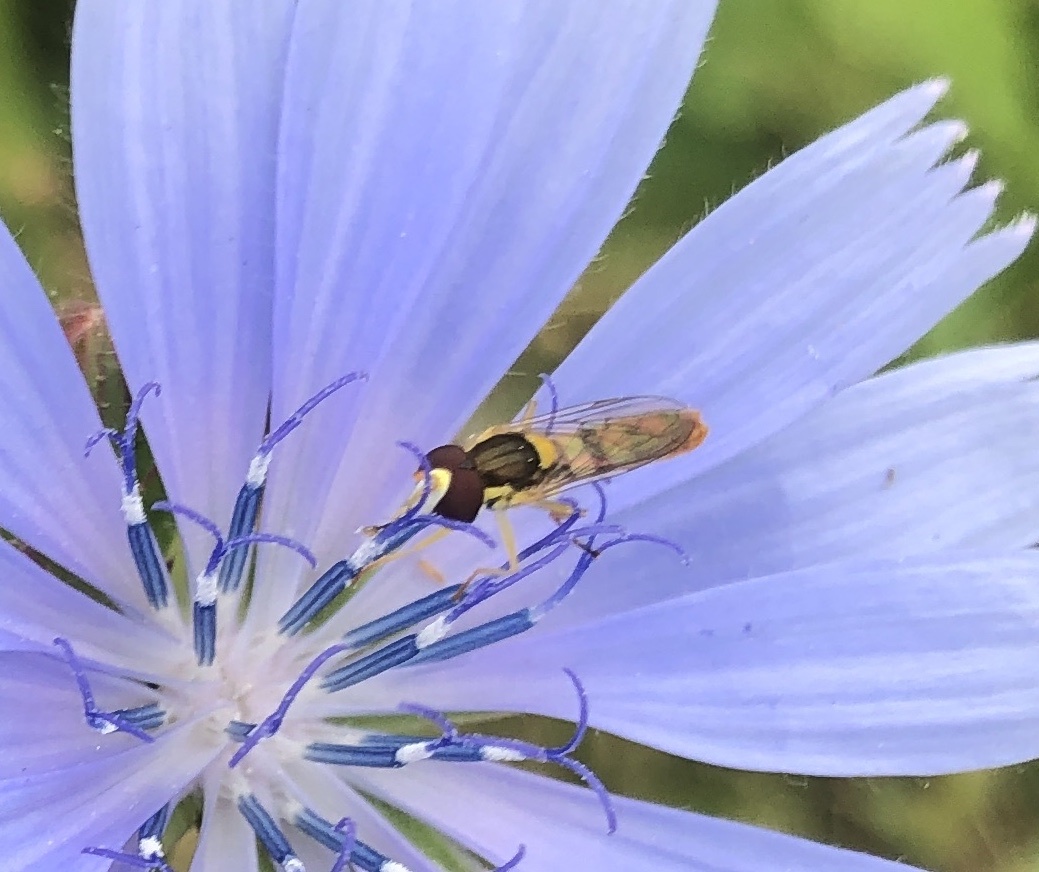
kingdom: Animalia
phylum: Arthropoda
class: Insecta
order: Diptera
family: Syrphidae
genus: Sphaerophoria
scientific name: Sphaerophoria contigua
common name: Tufted globetail
